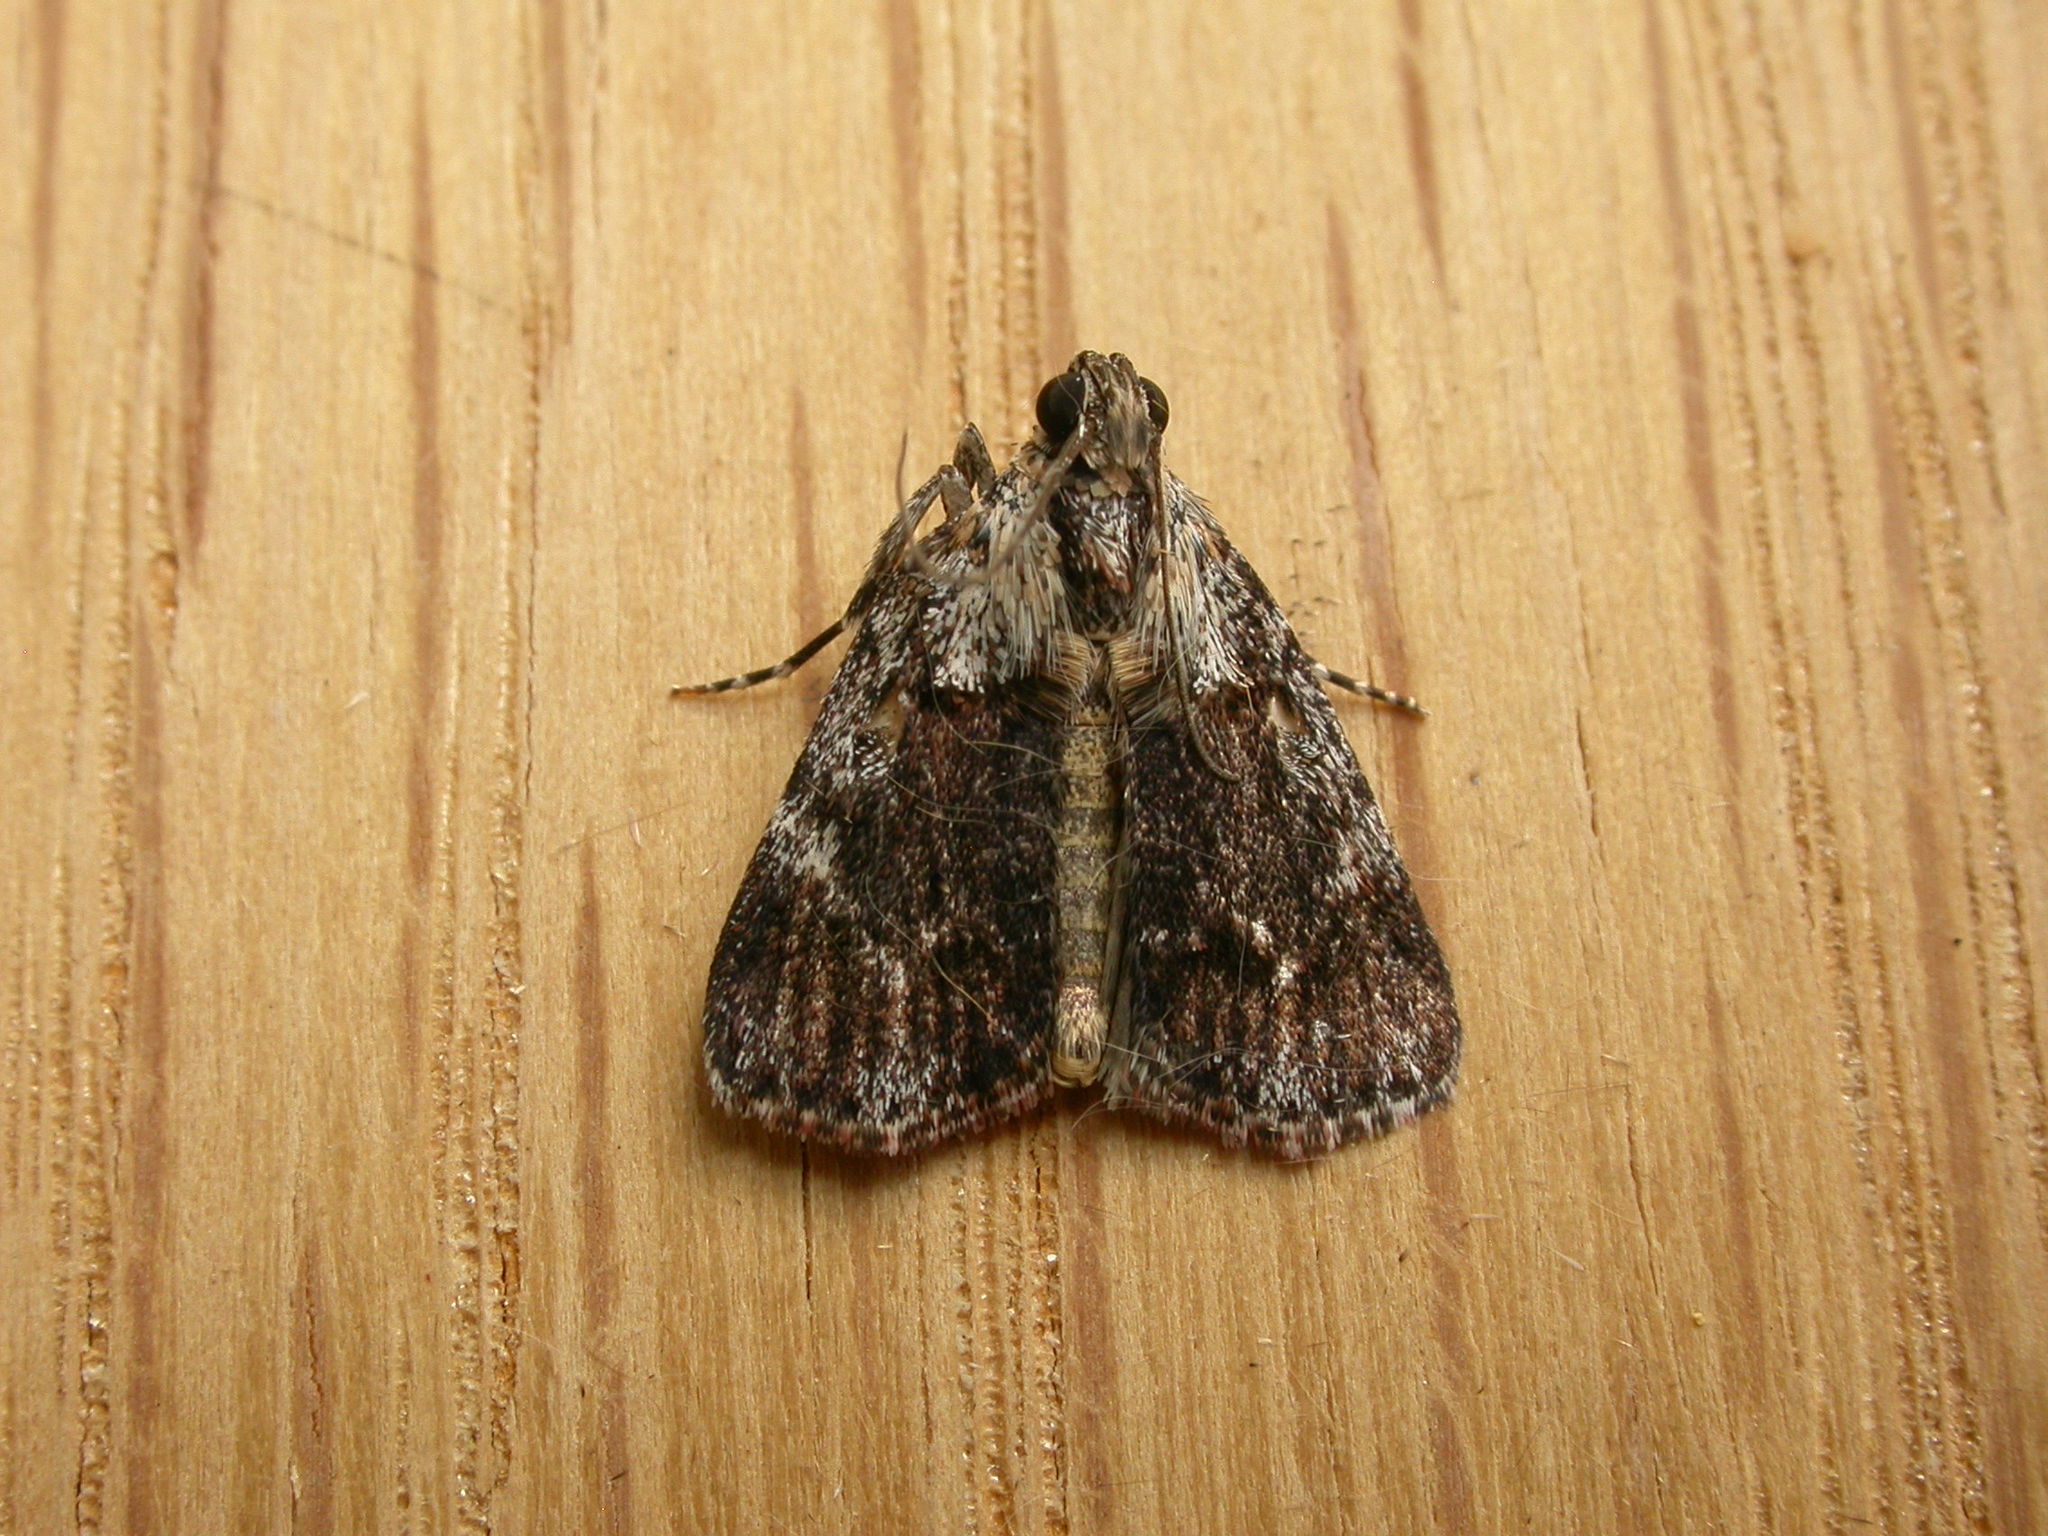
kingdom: Animalia
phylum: Arthropoda
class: Insecta
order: Lepidoptera
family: Pyralidae
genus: Spectrotrota
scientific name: Spectrotrota fimbrialis
